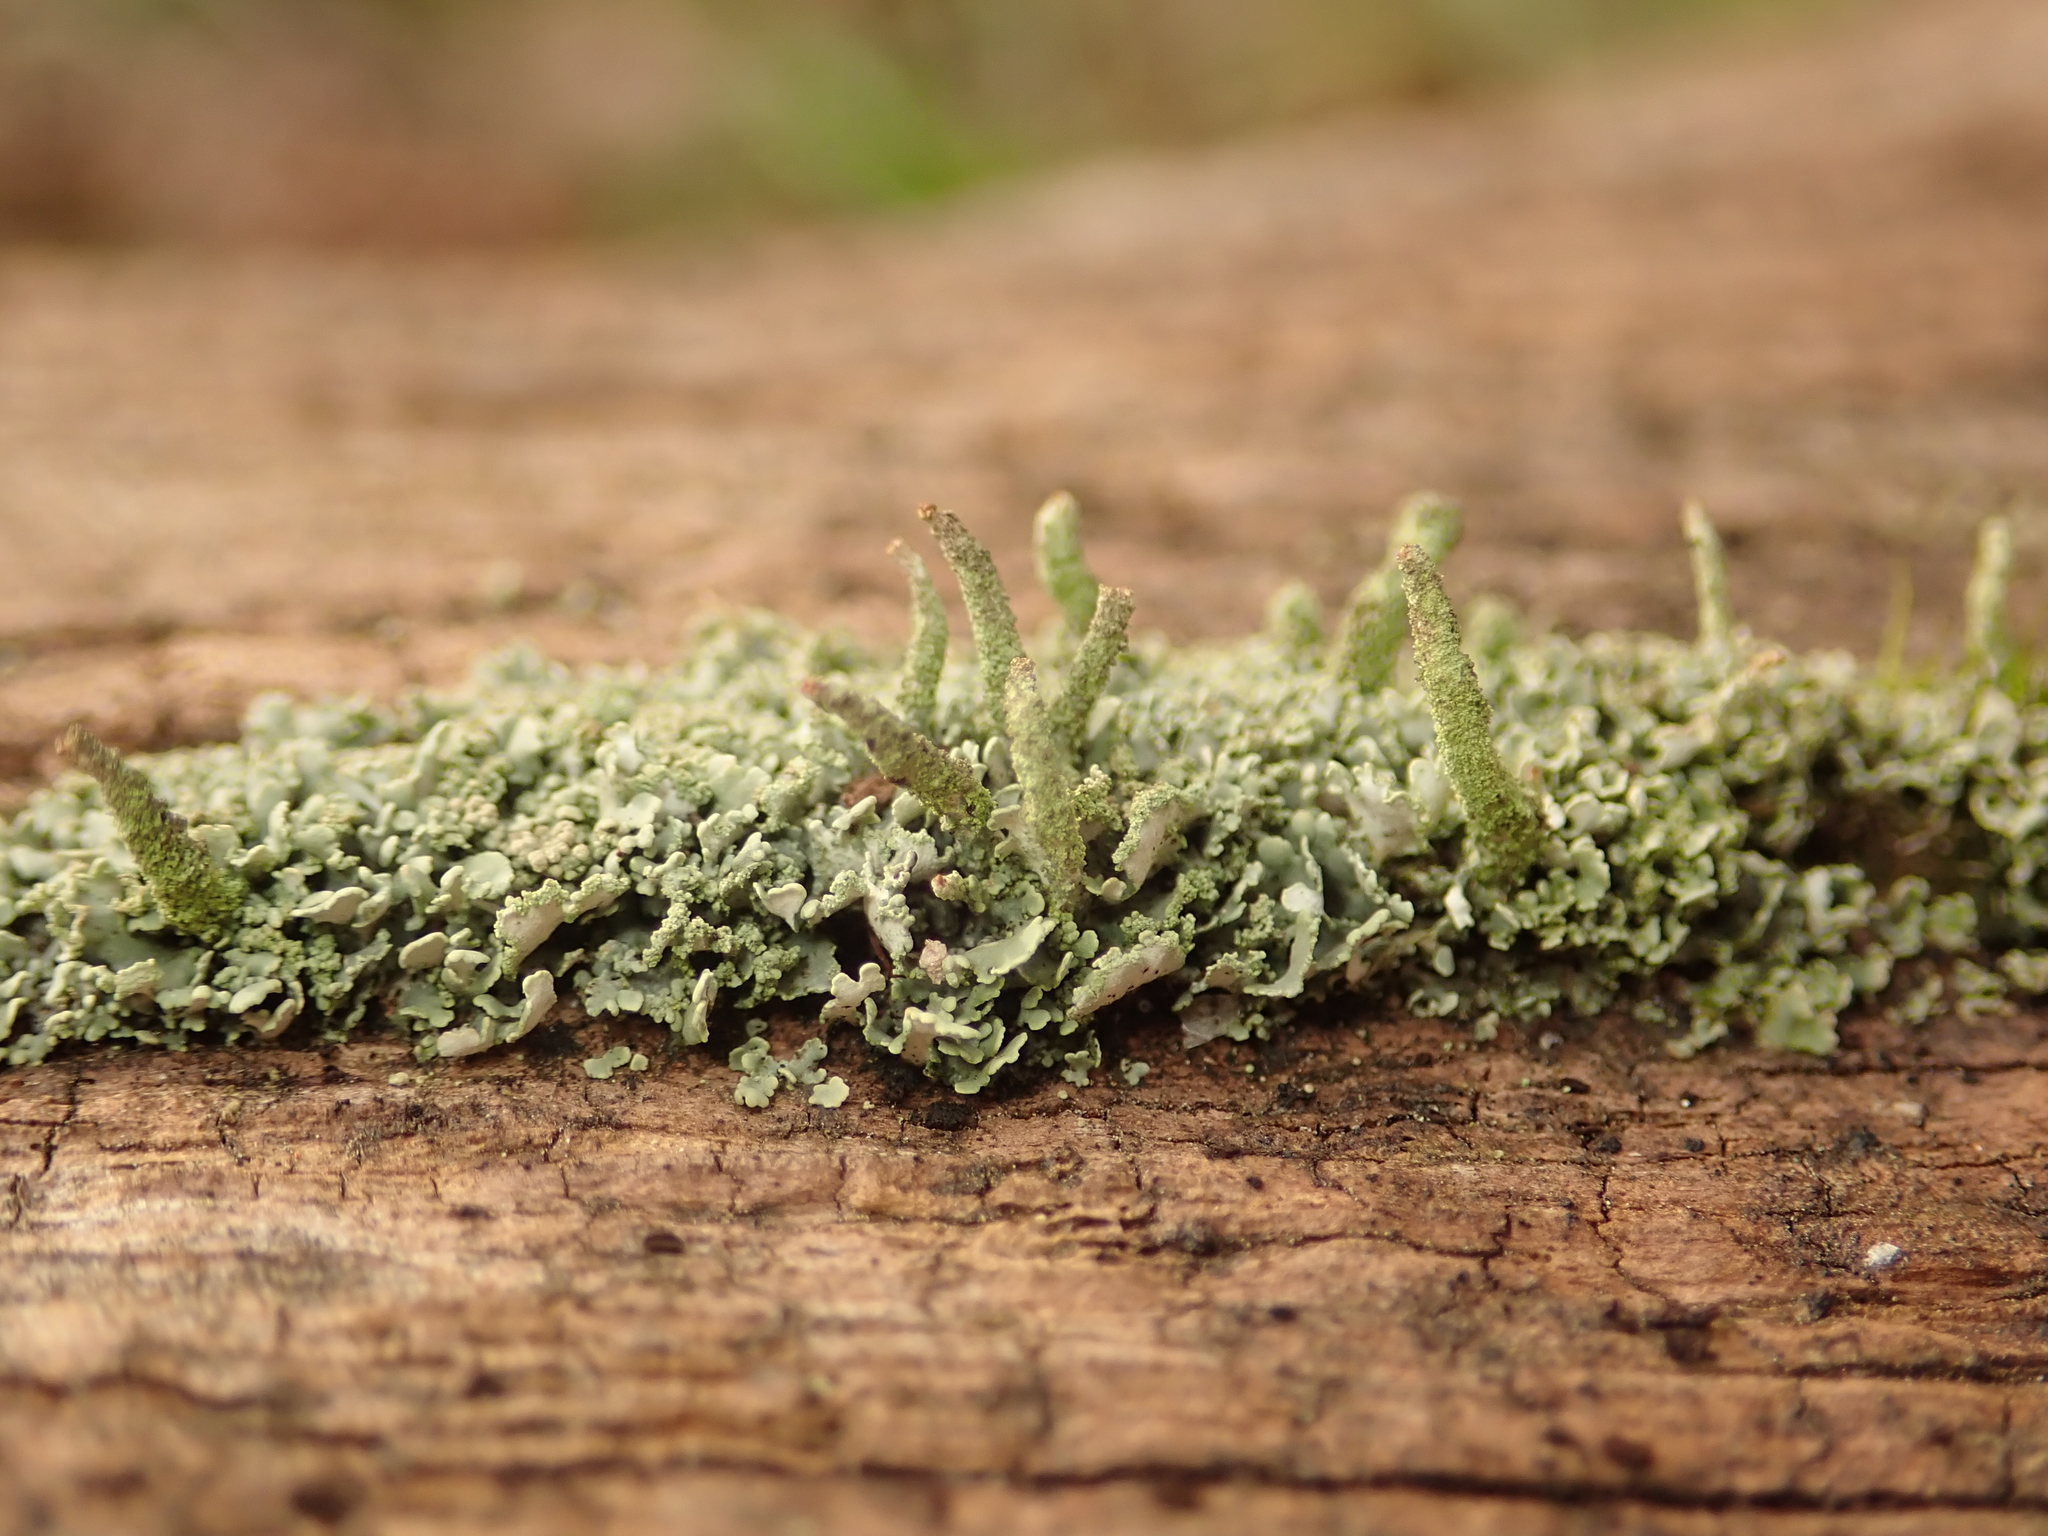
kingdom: Fungi
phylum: Ascomycota
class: Lecanoromycetes
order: Lecanorales
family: Cladoniaceae
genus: Cladonia
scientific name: Cladonia coniocraea
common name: Common powderhorn
